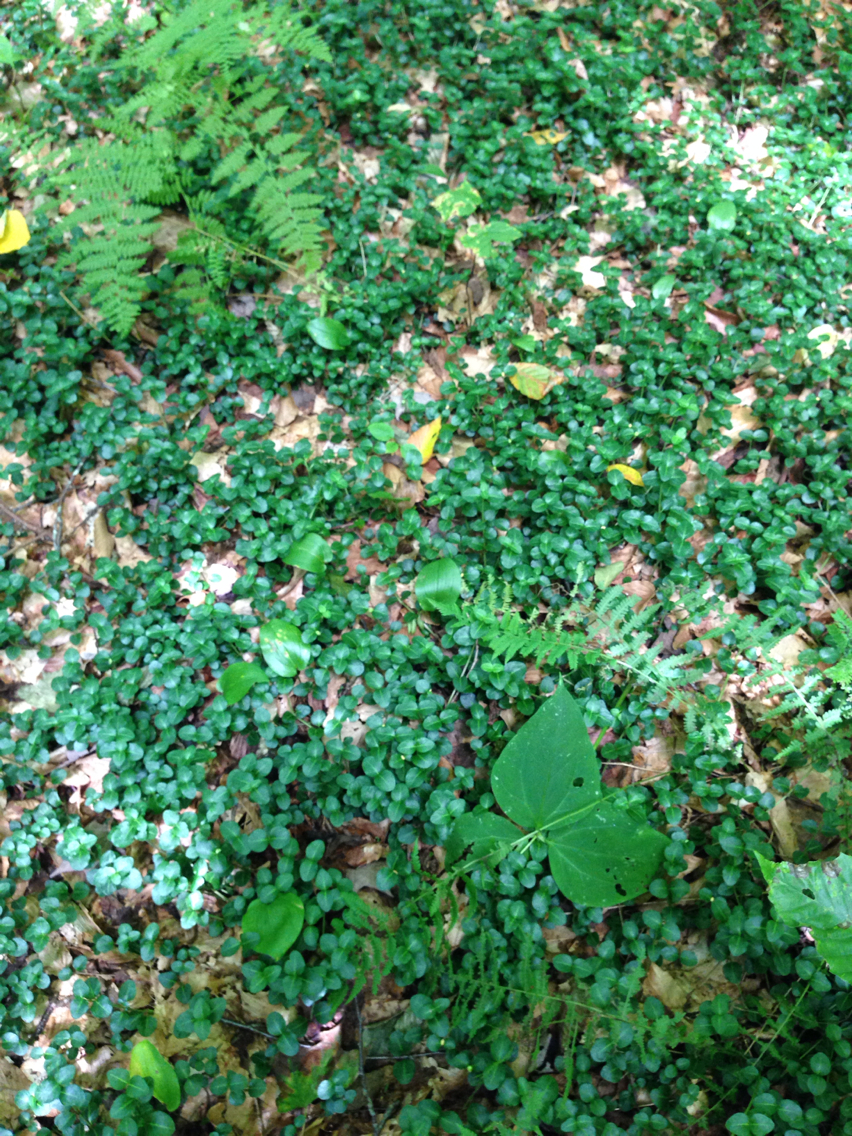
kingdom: Plantae
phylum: Tracheophyta
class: Magnoliopsida
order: Gentianales
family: Rubiaceae
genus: Mitchella
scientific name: Mitchella repens
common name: Partridge-berry
